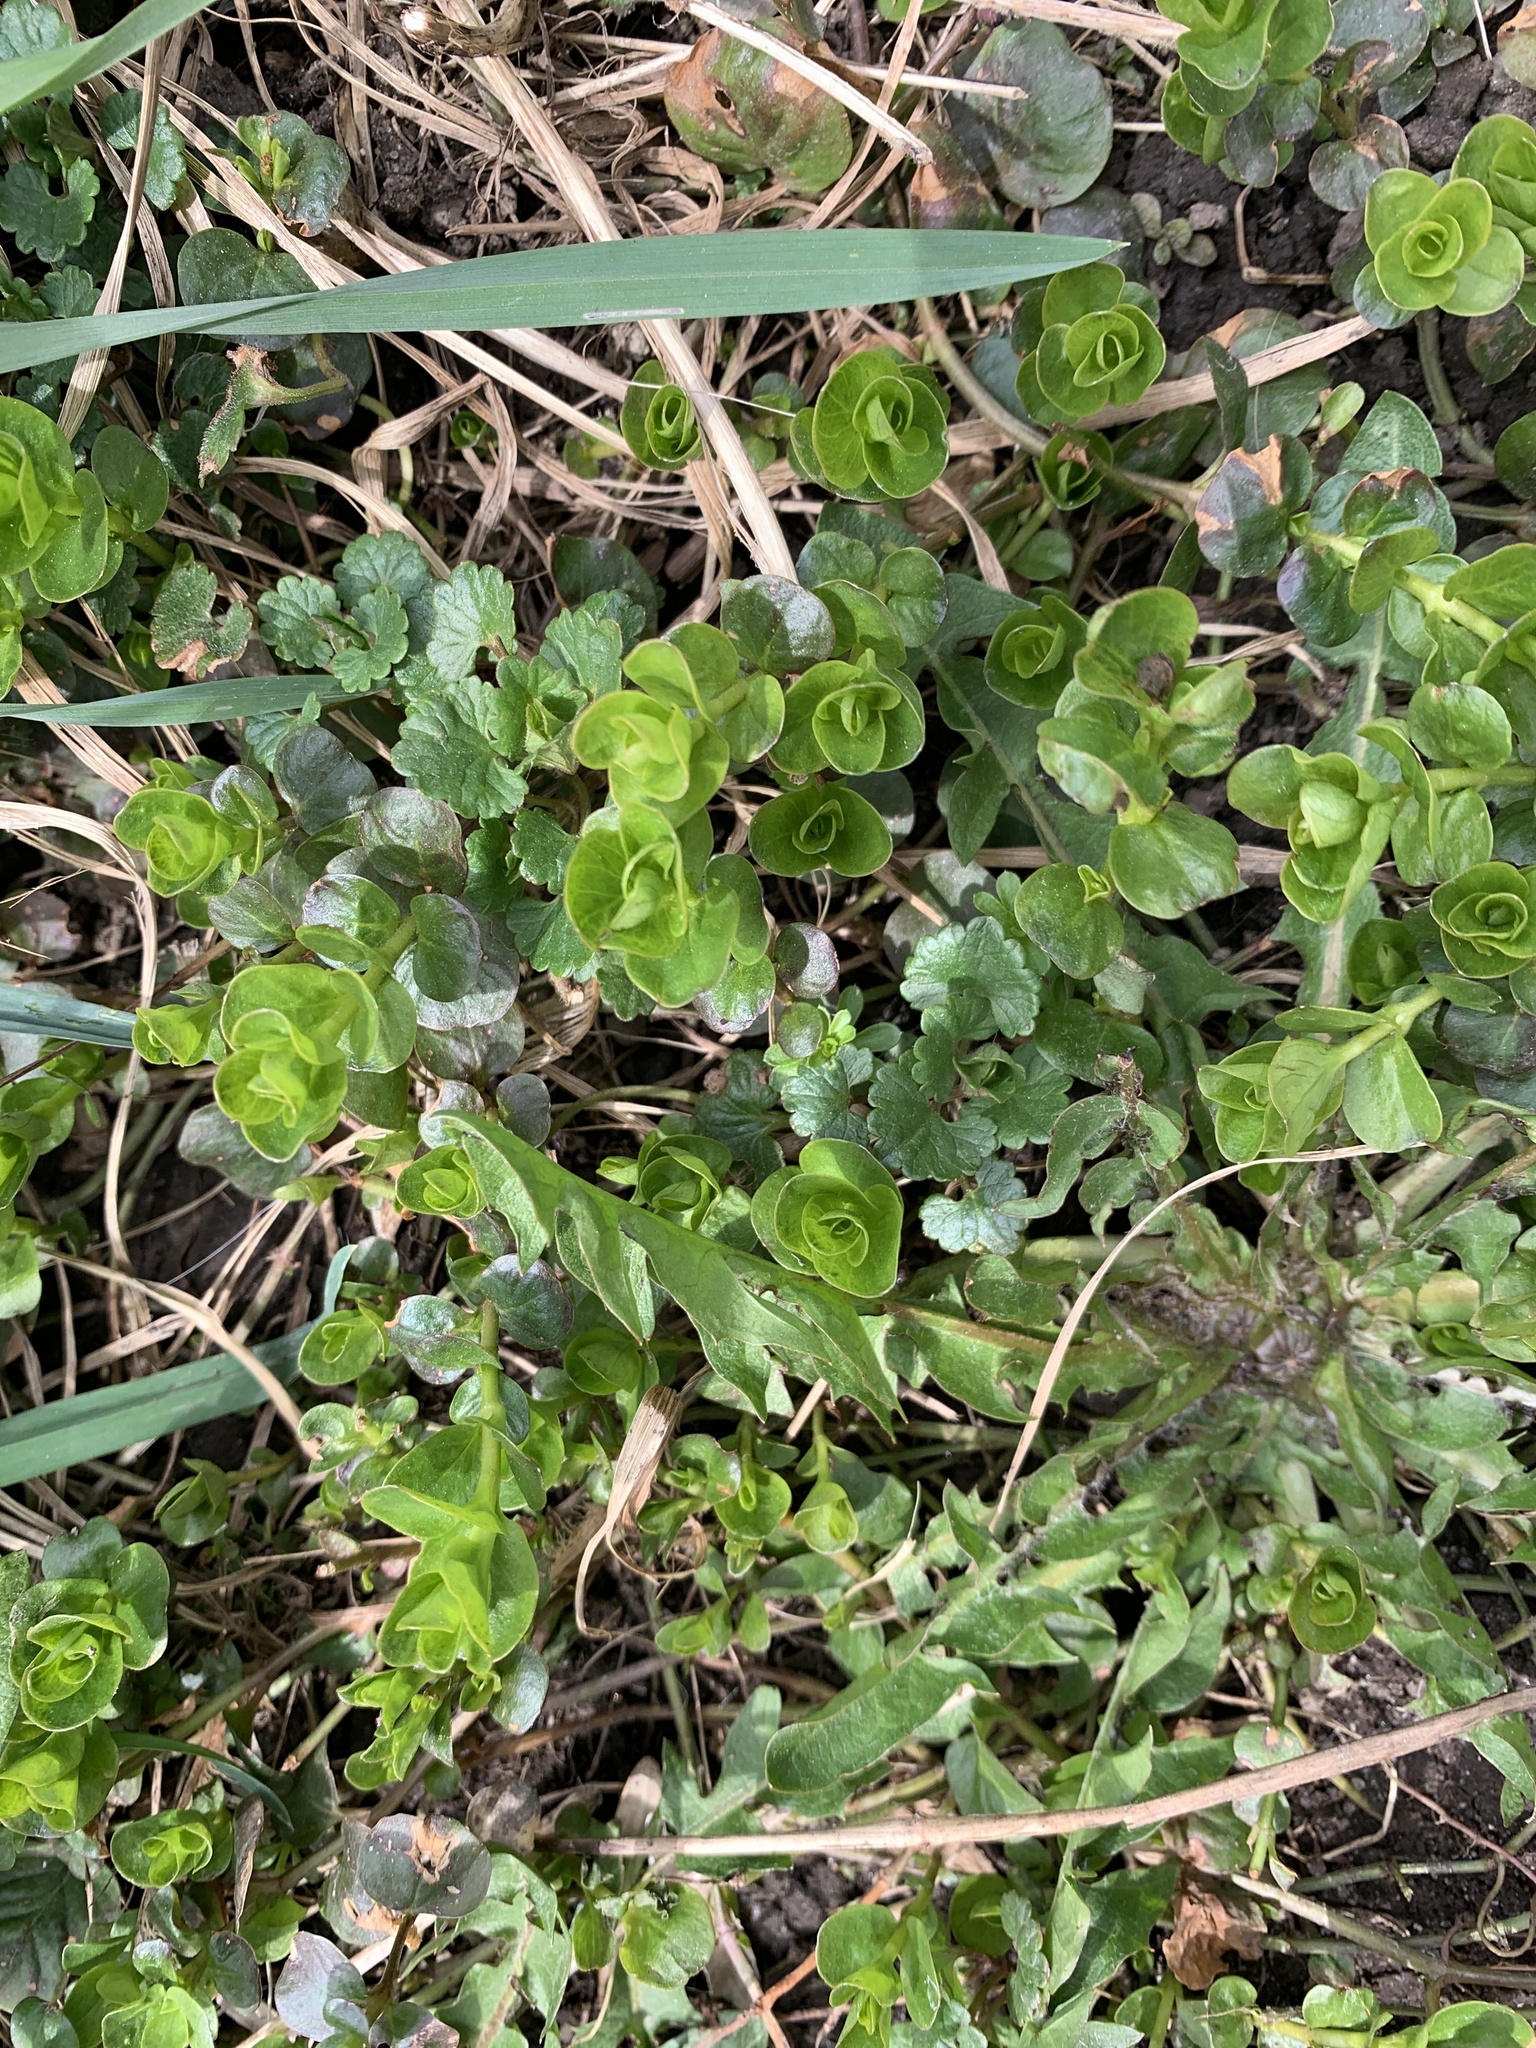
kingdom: Plantae
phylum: Tracheophyta
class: Magnoliopsida
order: Ericales
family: Primulaceae
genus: Lysimachia
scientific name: Lysimachia nummularia
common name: Moneywort
